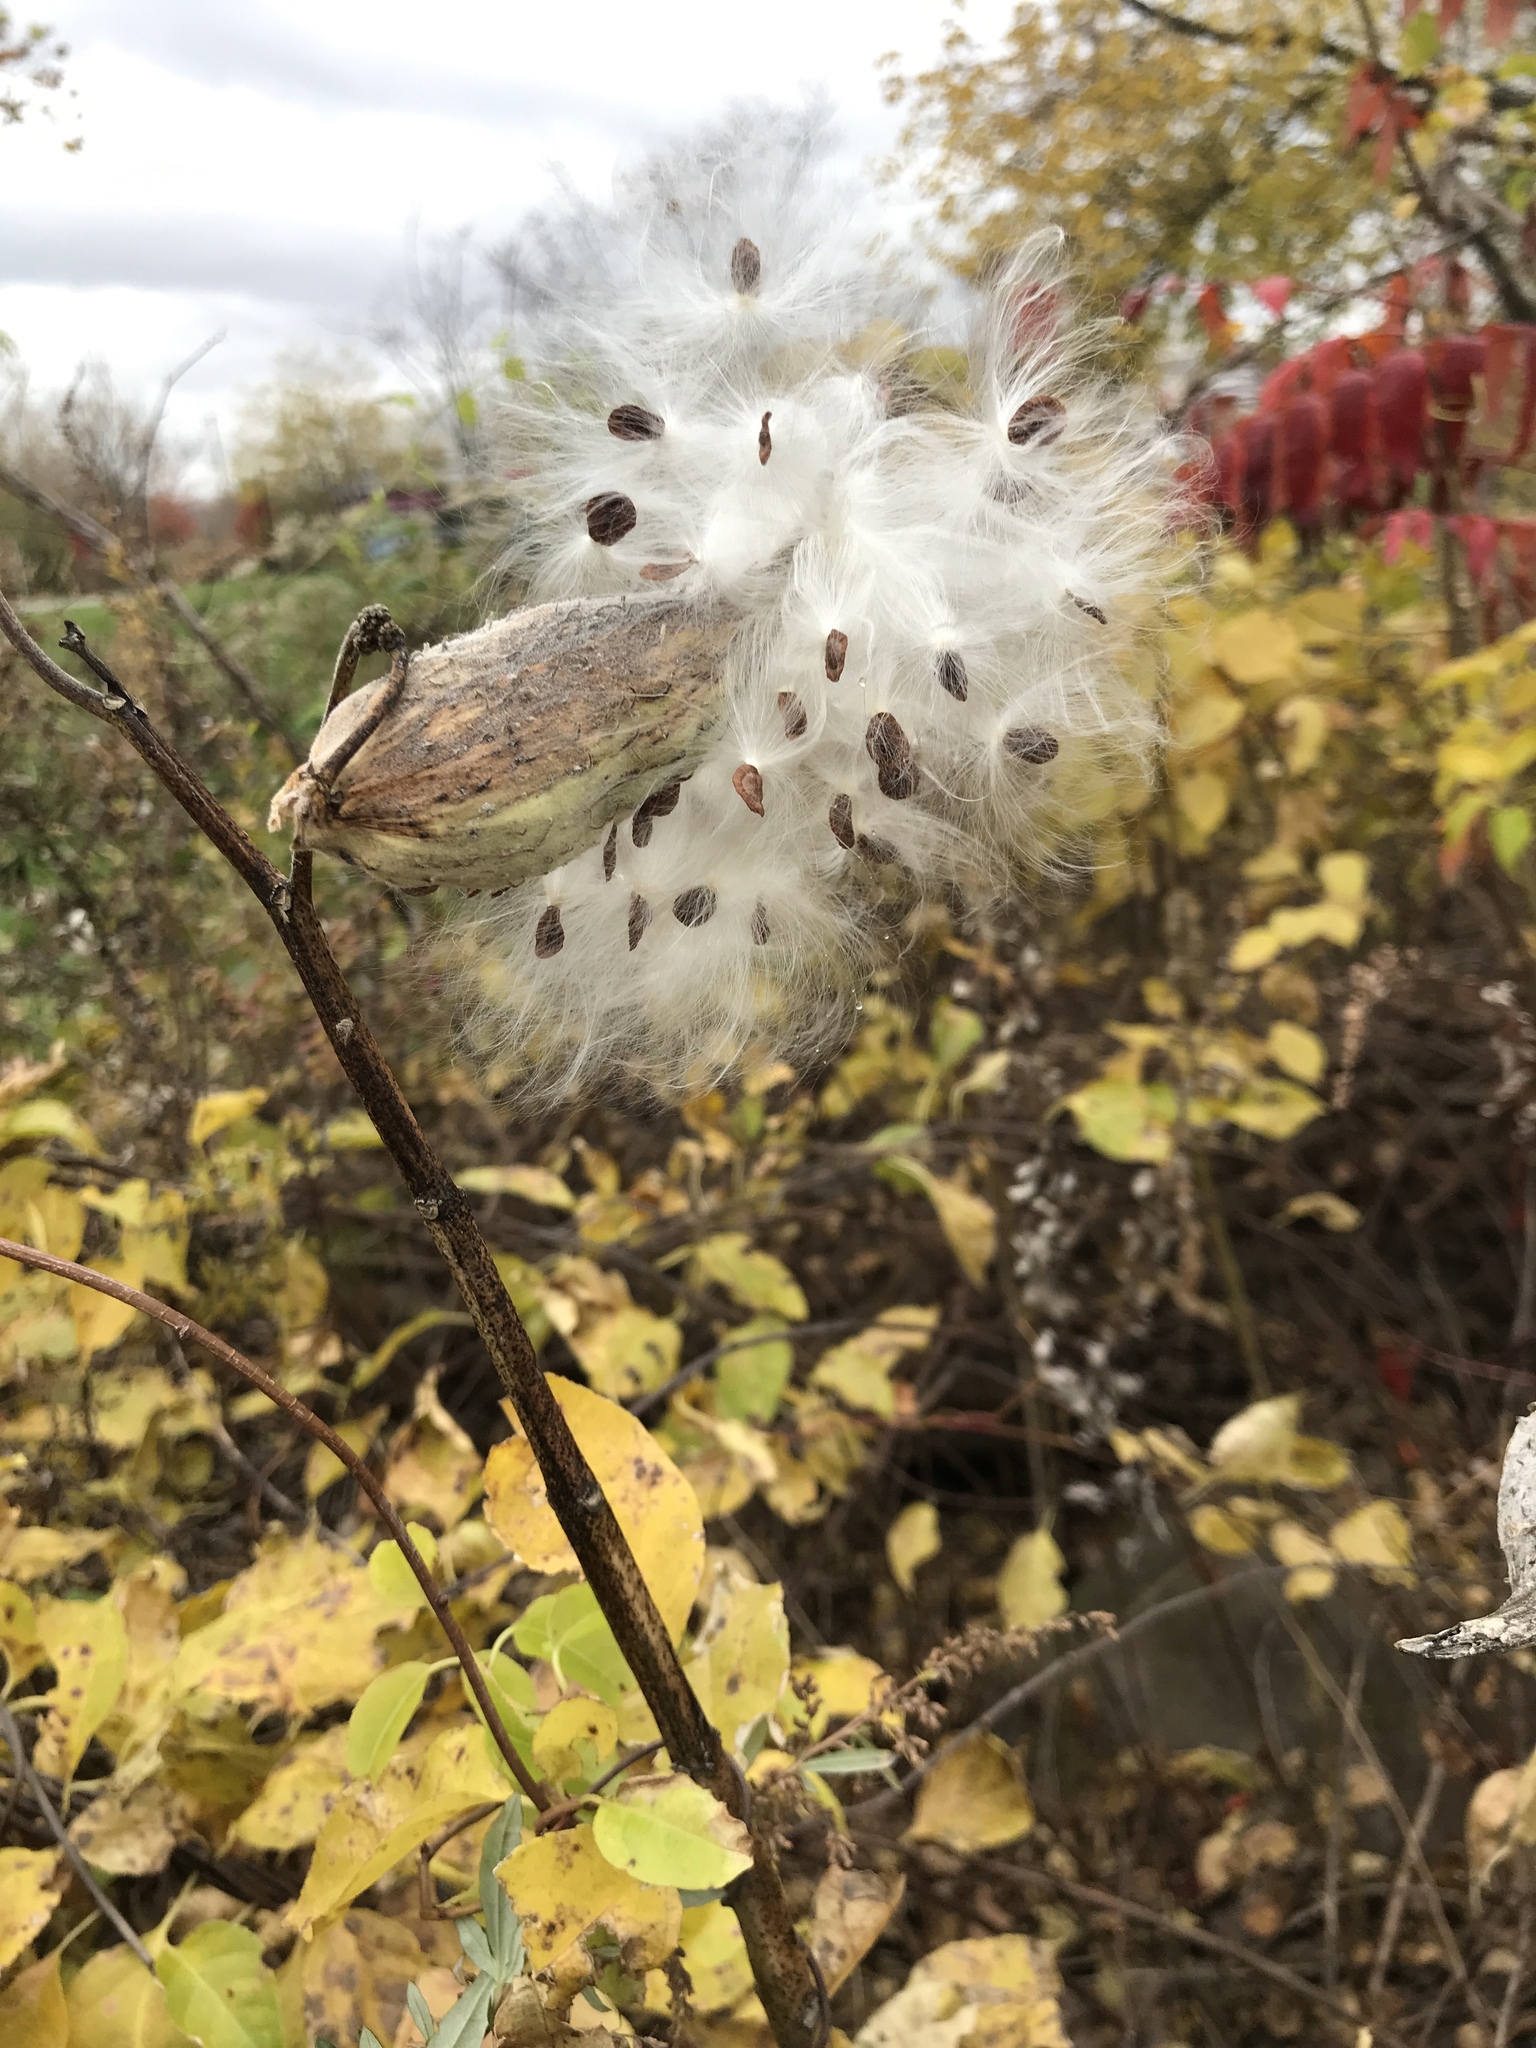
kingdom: Plantae
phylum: Tracheophyta
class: Magnoliopsida
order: Gentianales
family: Apocynaceae
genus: Asclepias
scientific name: Asclepias syriaca
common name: Common milkweed
